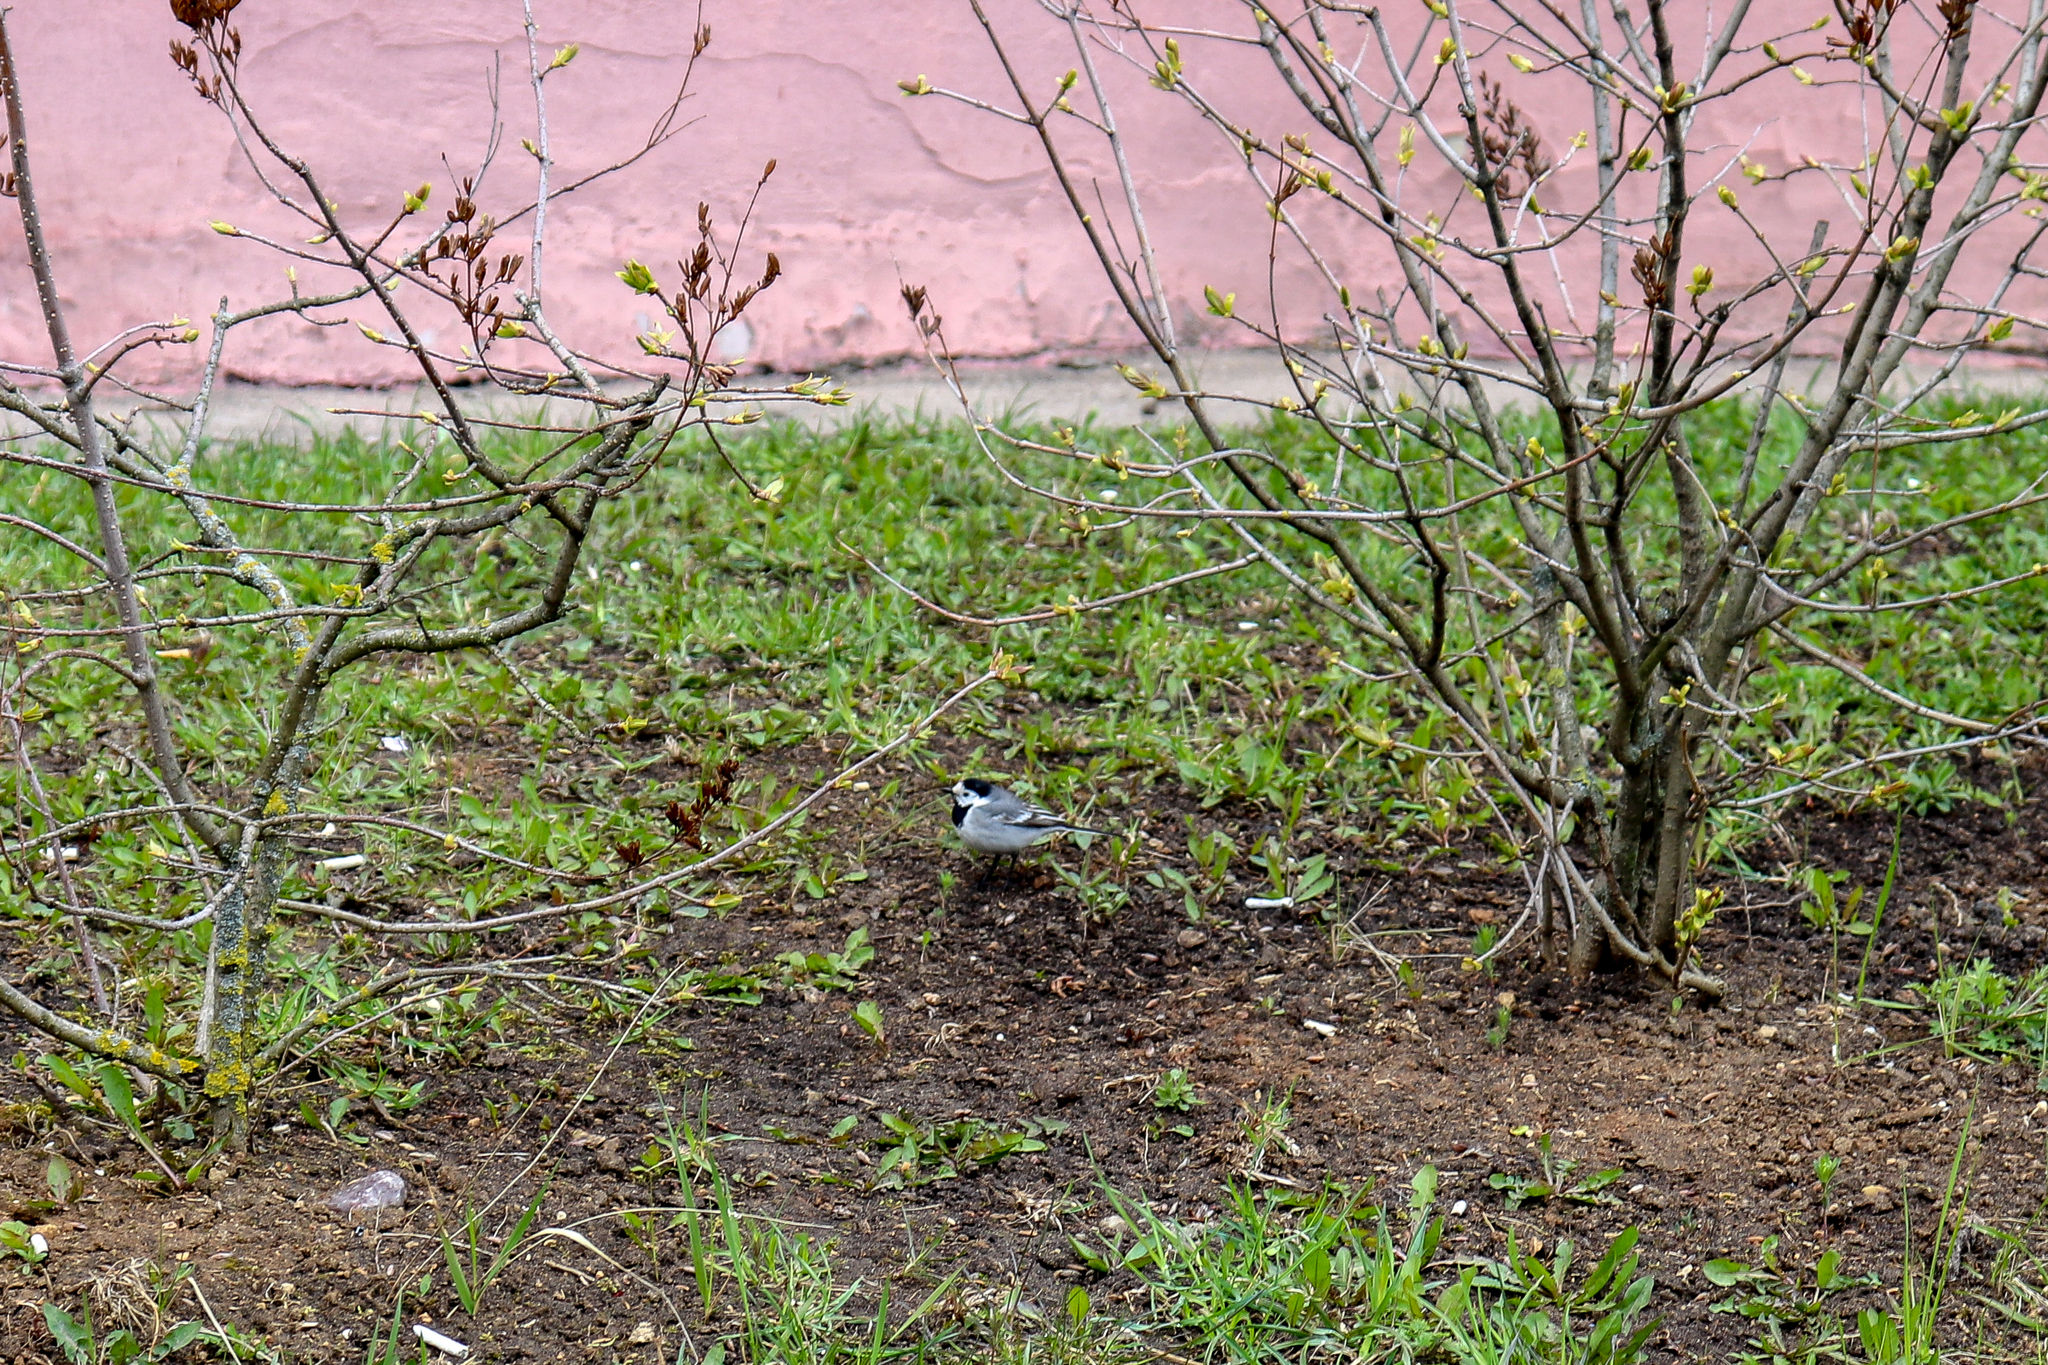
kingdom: Animalia
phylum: Chordata
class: Aves
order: Passeriformes
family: Motacillidae
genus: Motacilla
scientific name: Motacilla alba
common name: White wagtail
